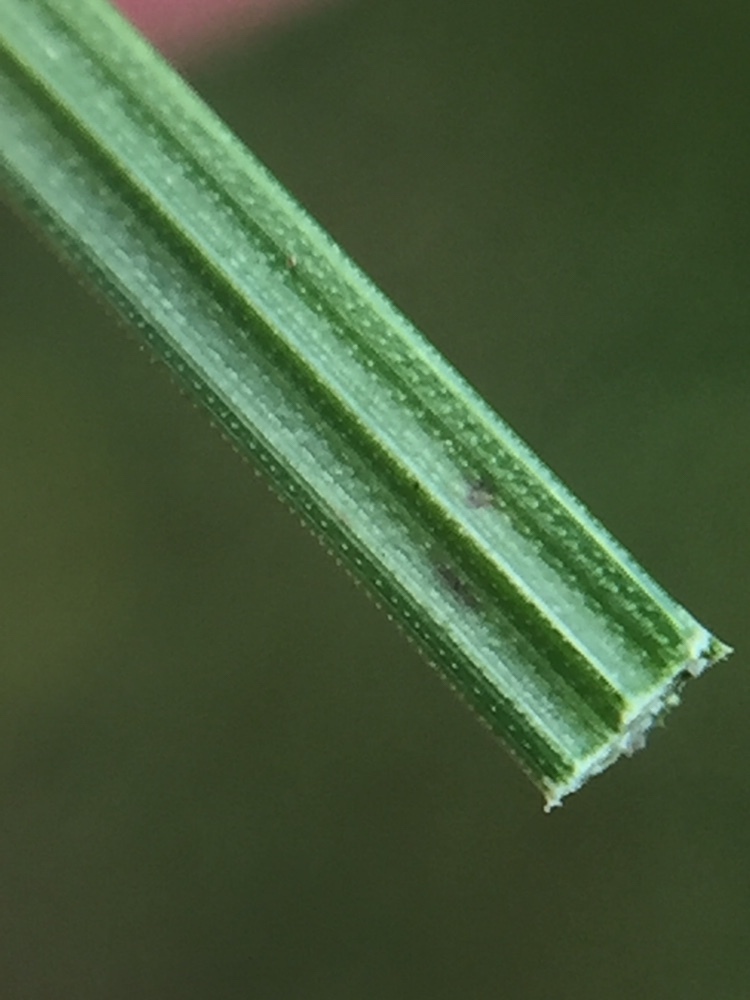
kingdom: Plantae
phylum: Tracheophyta
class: Liliopsida
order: Poales
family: Cyperaceae
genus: Cyperus
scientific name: Cyperus brevifolius
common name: Globe kyllinga
